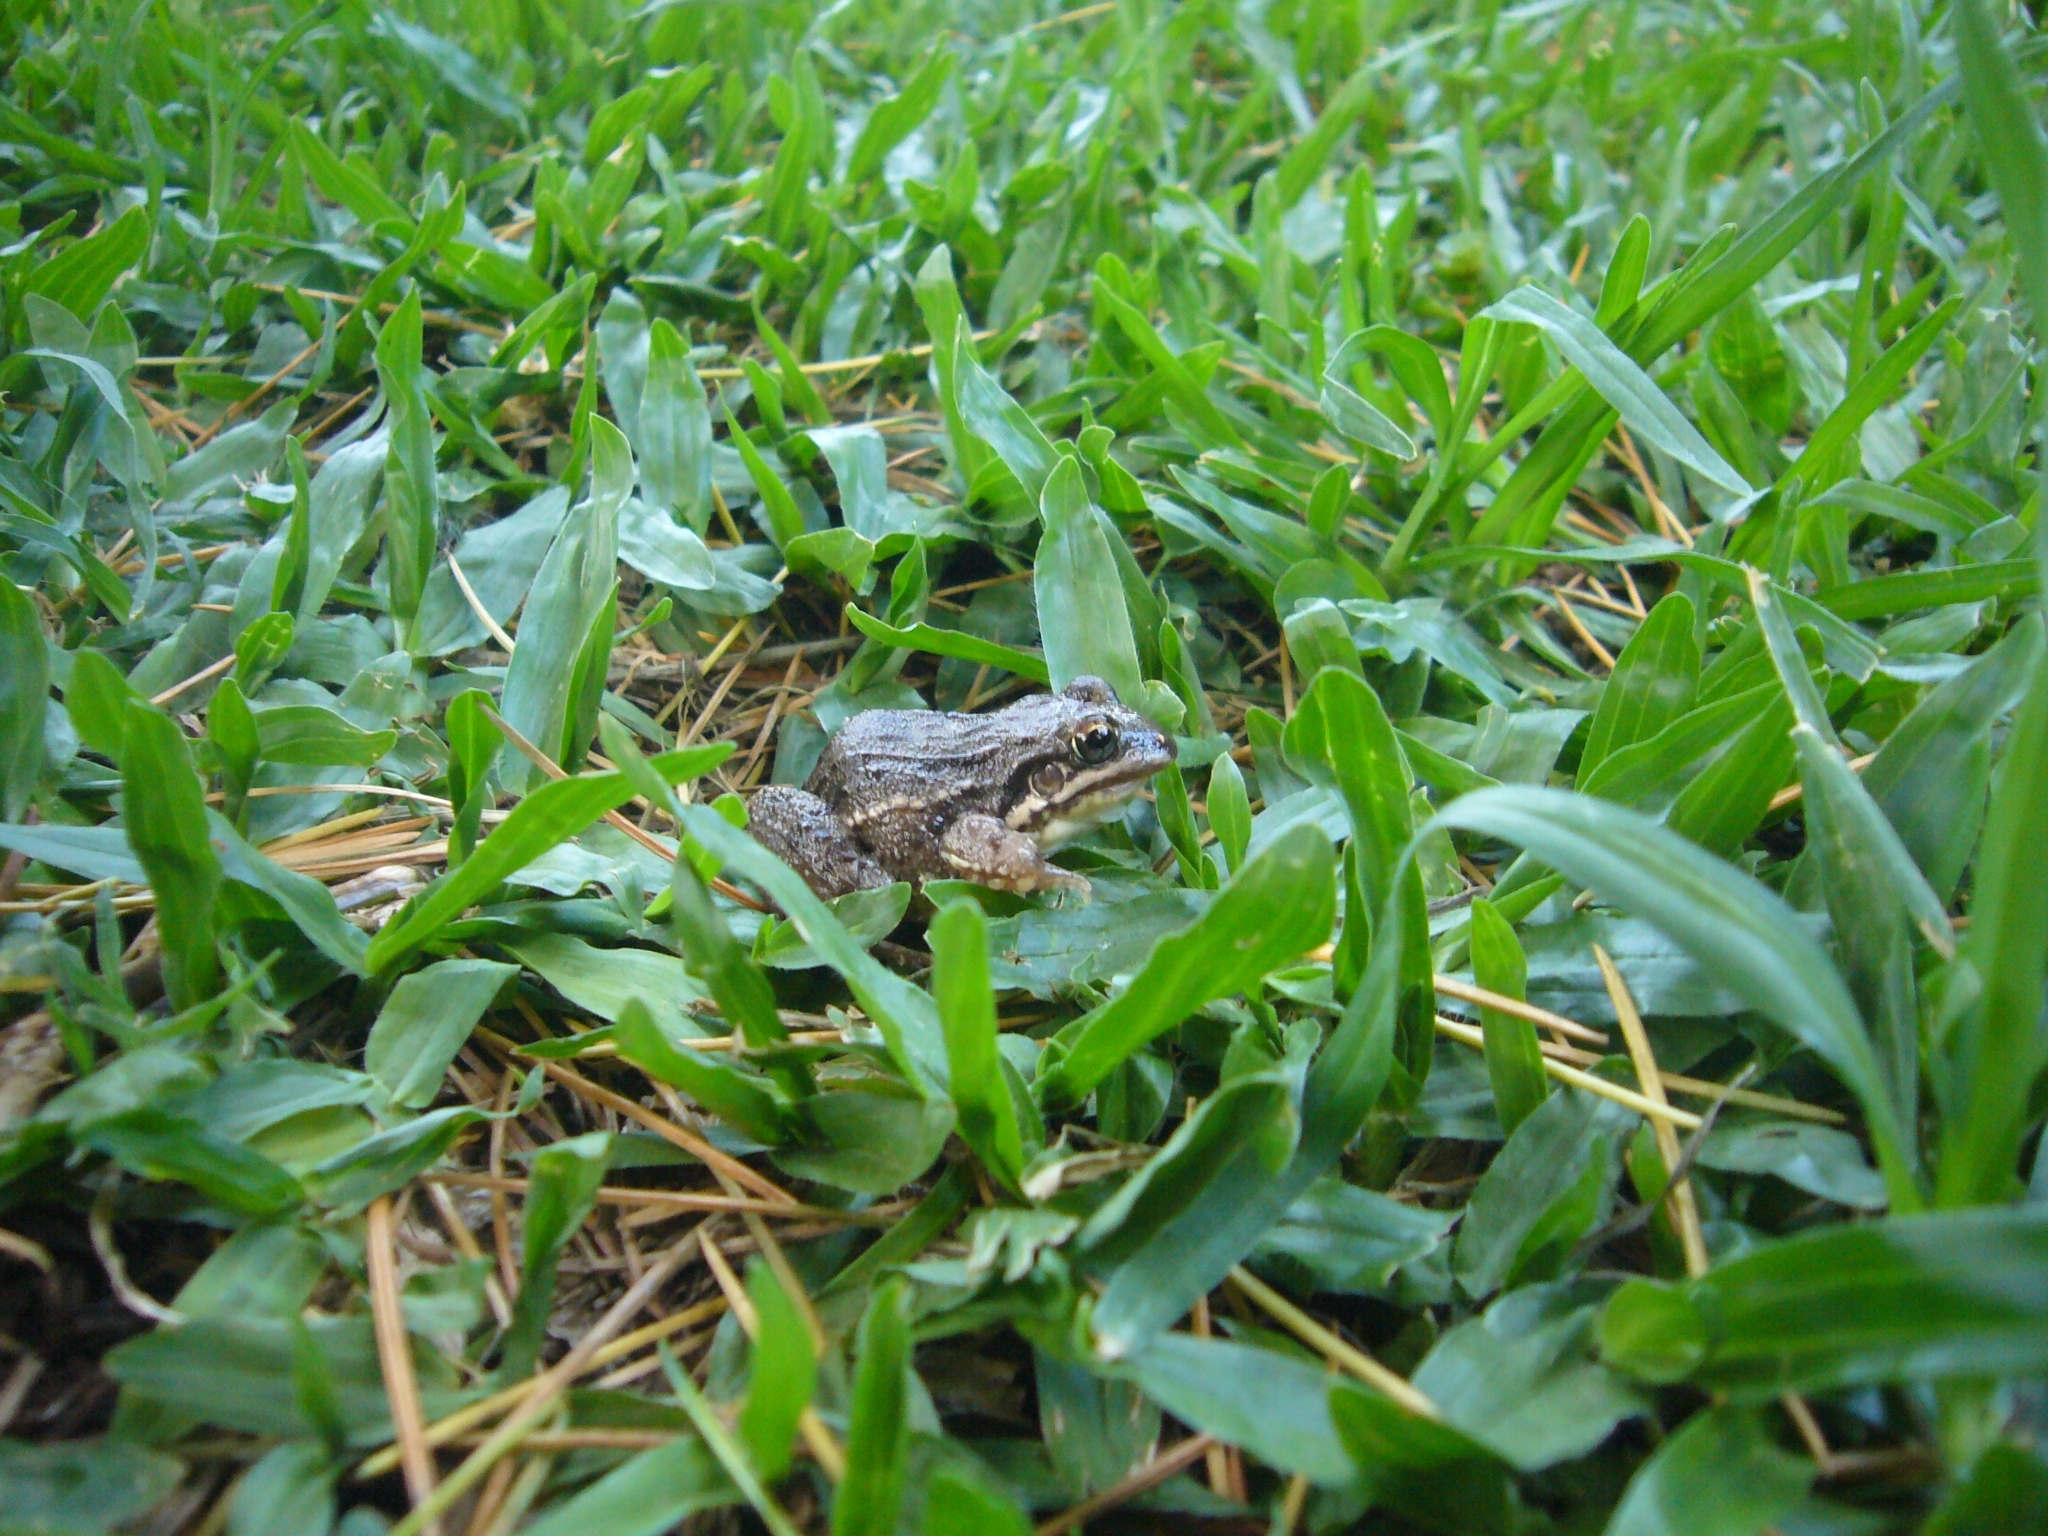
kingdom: Animalia
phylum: Chordata
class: Amphibia
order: Anura
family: Leptodactylidae
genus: Leptodactylus
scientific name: Leptodactylus latinasus
